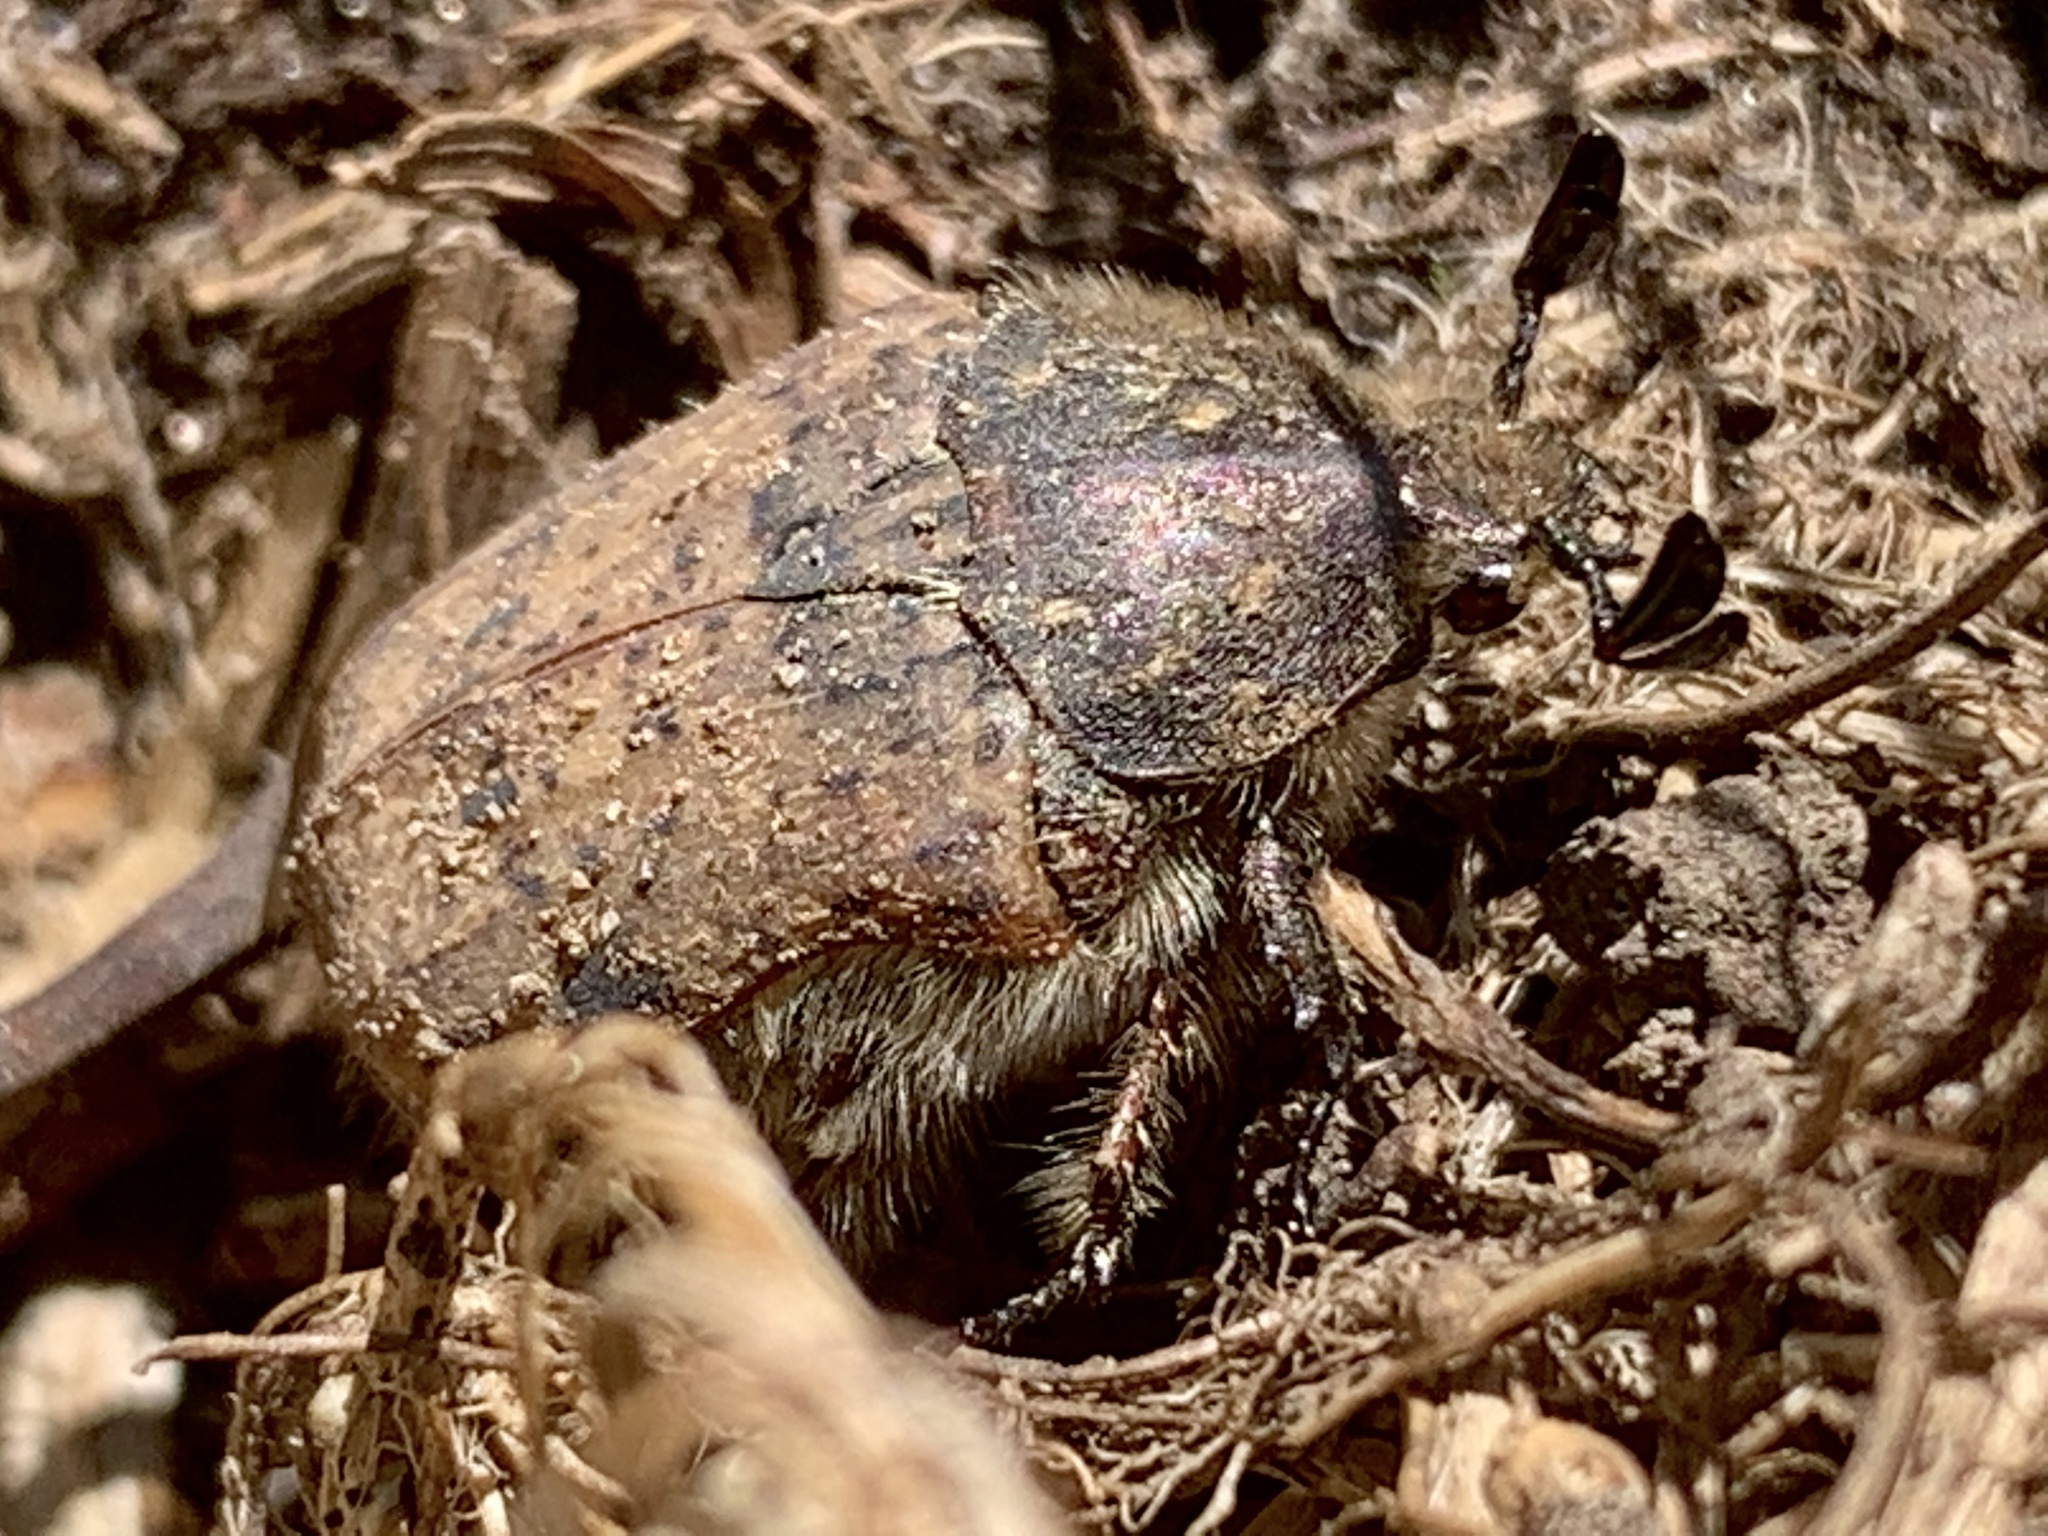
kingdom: Animalia
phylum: Arthropoda
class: Insecta
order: Coleoptera
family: Scarabaeidae
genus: Euphoria
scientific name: Euphoria inda
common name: Bumble flower beetle
